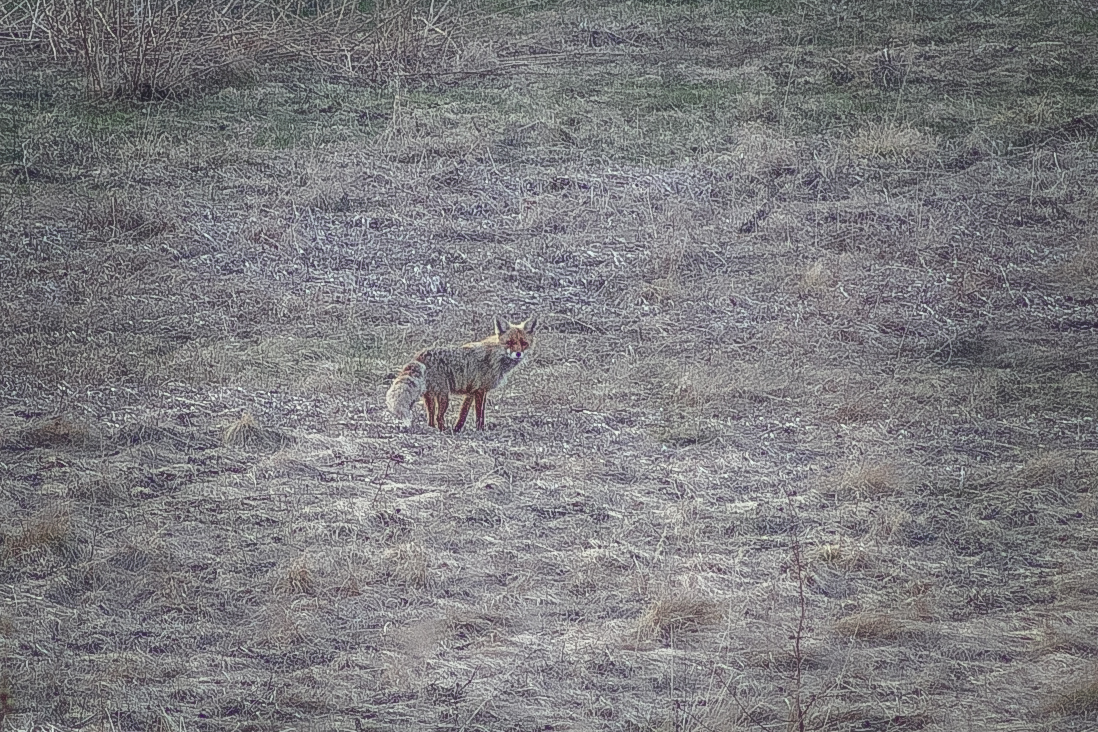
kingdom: Animalia
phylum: Chordata
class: Mammalia
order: Carnivora
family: Canidae
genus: Vulpes
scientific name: Vulpes vulpes
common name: Red fox
